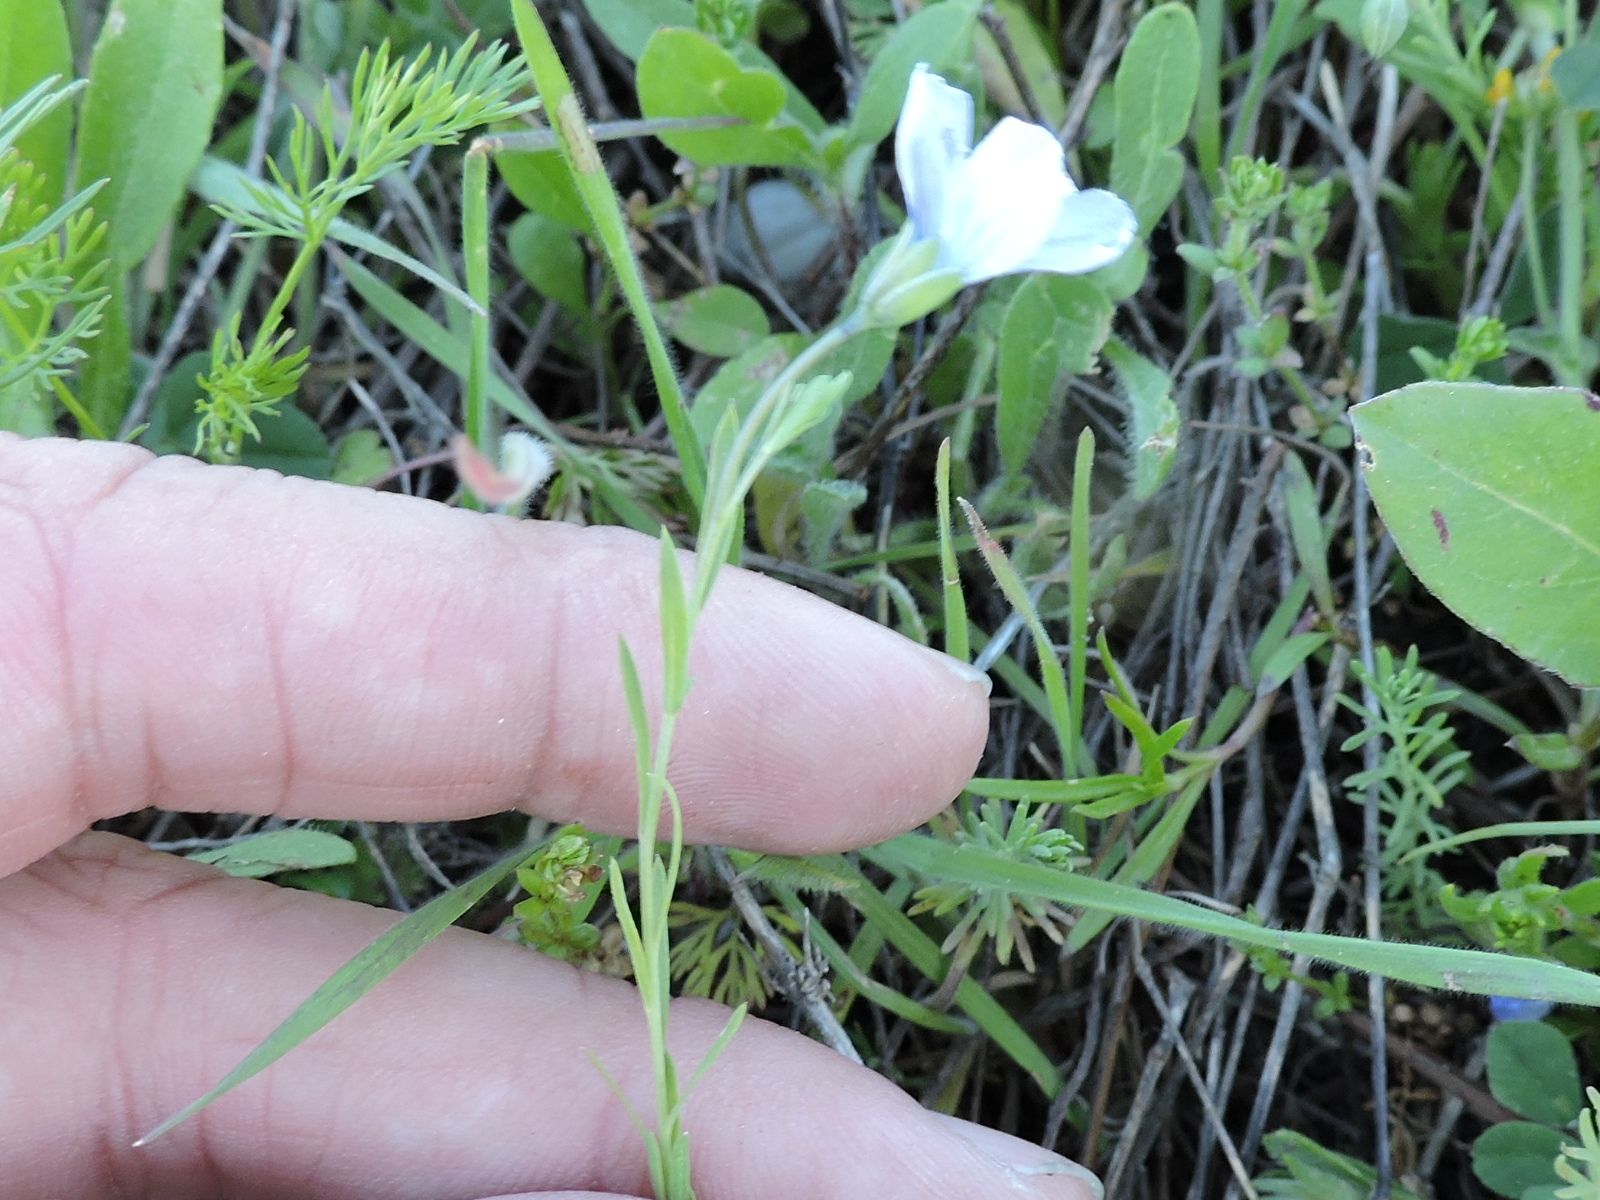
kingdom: Plantae
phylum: Tracheophyta
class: Magnoliopsida
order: Malpighiales
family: Linaceae
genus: Linum
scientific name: Linum pratense
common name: Norton's flax
